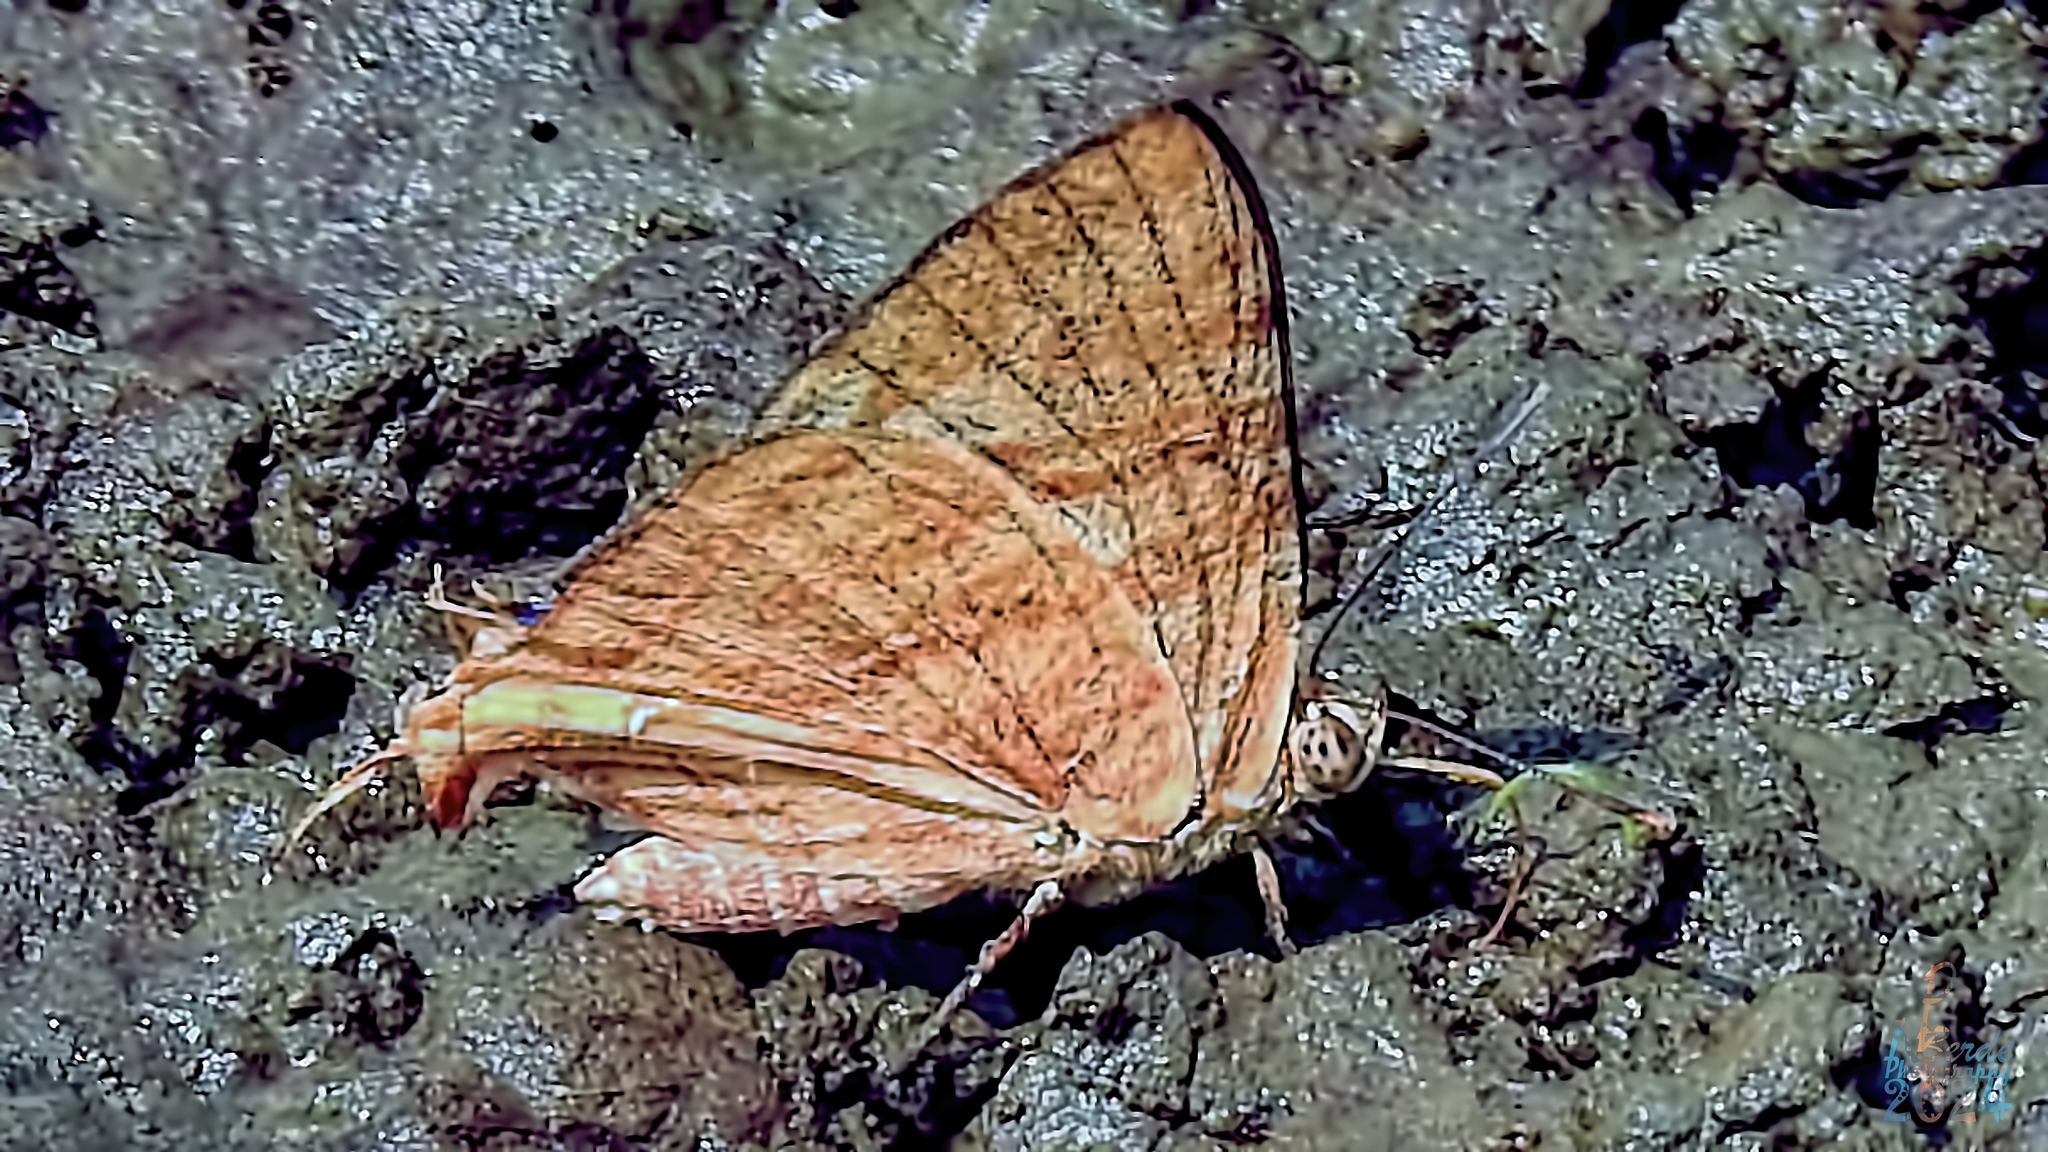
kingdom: Animalia
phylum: Arthropoda
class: Insecta
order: Lepidoptera
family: Lycaenidae
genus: Cigaritis
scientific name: Cigaritis
